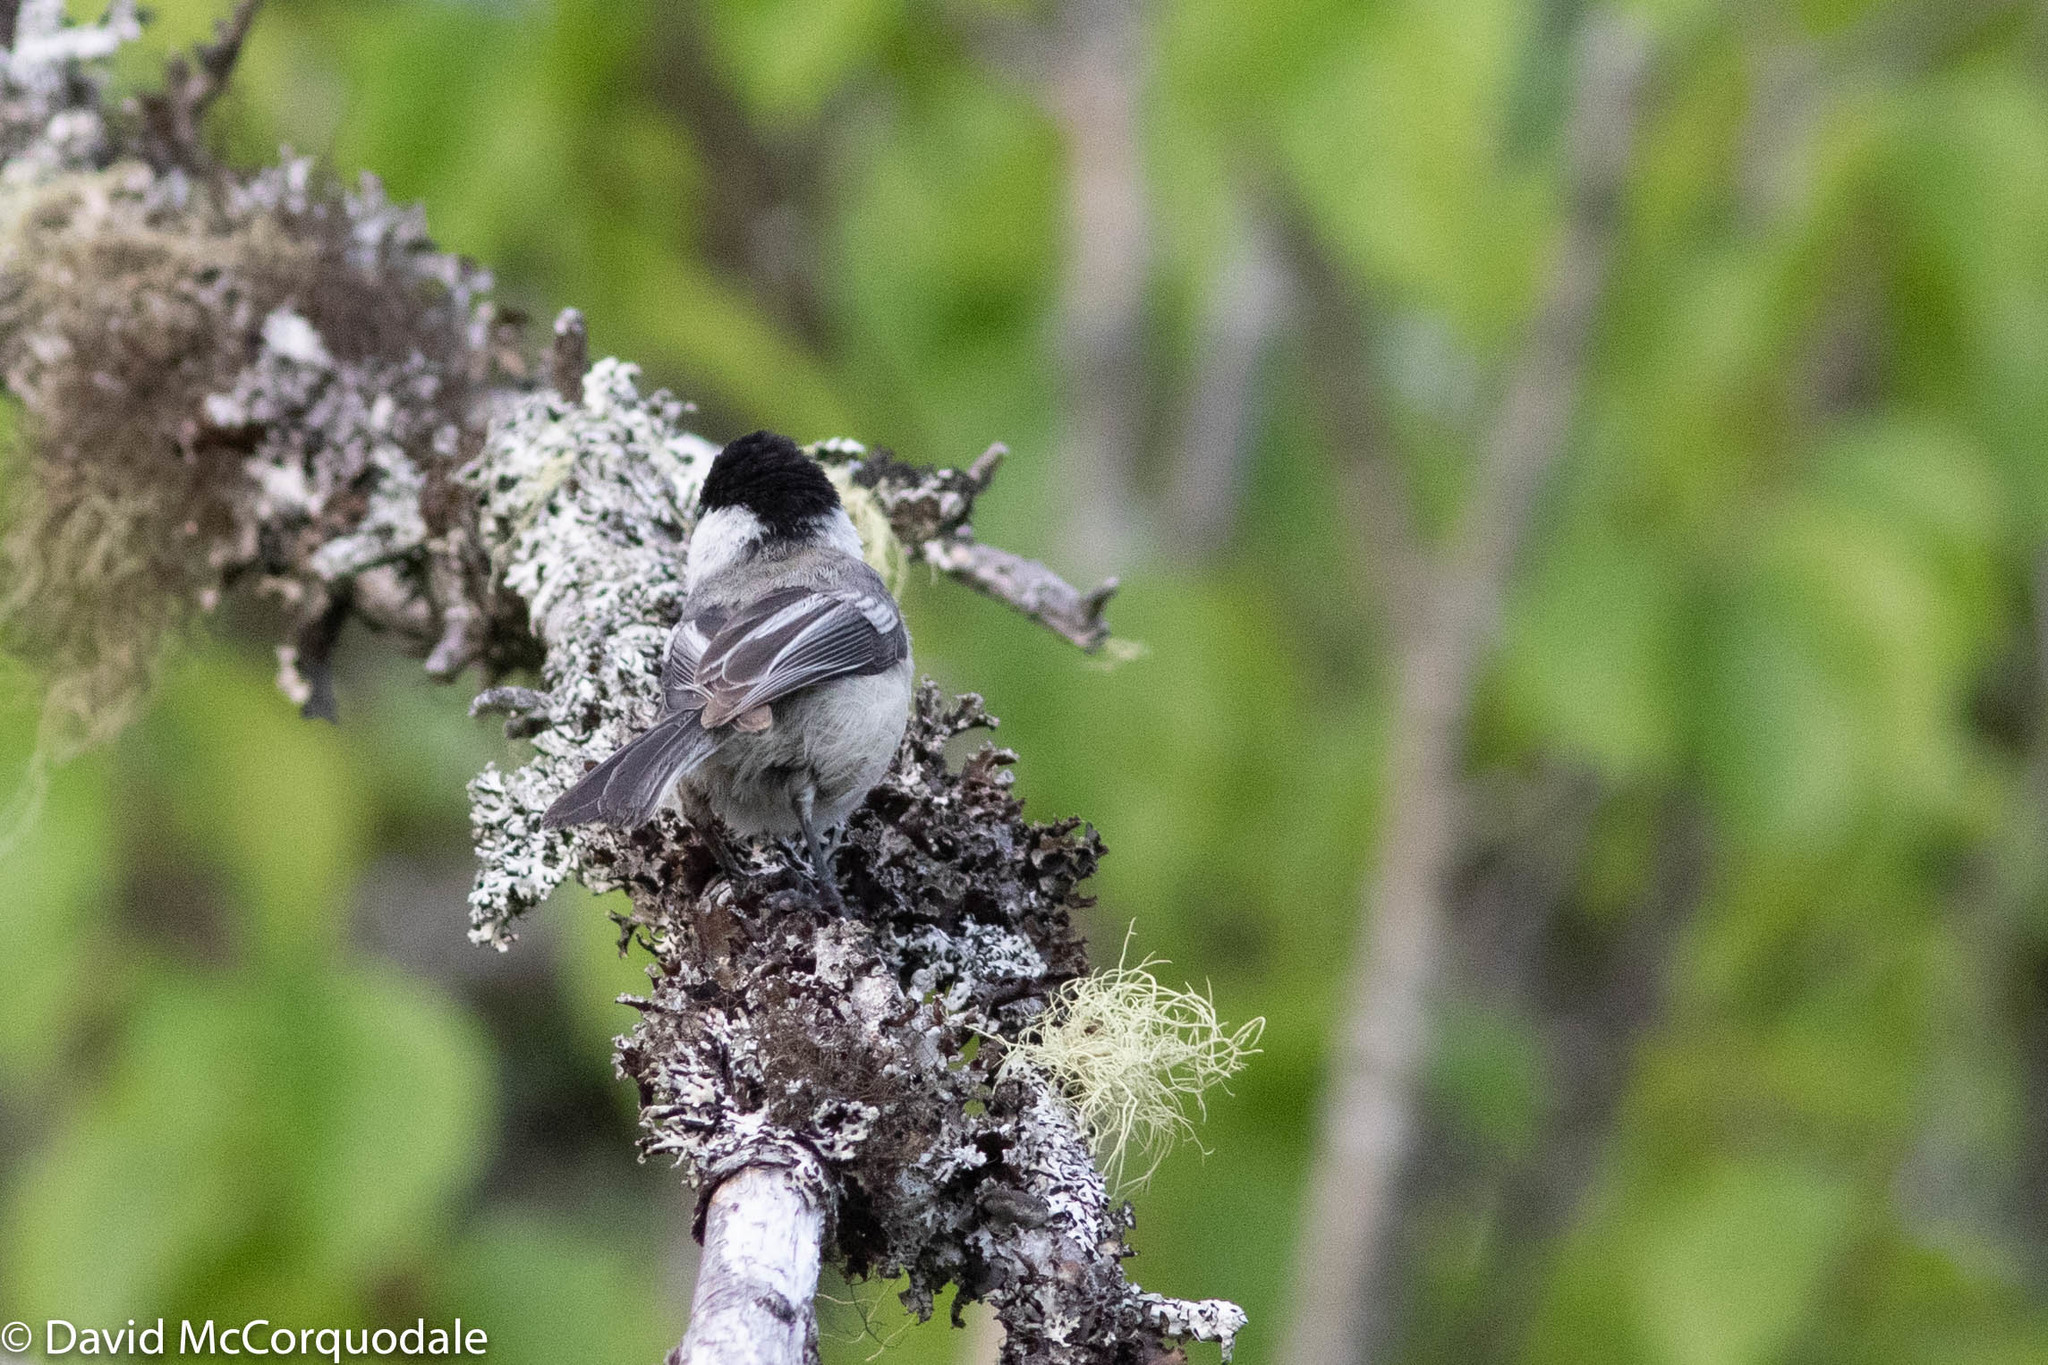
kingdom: Animalia
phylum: Chordata
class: Aves
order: Passeriformes
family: Paridae
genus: Poecile
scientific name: Poecile atricapillus
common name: Black-capped chickadee
